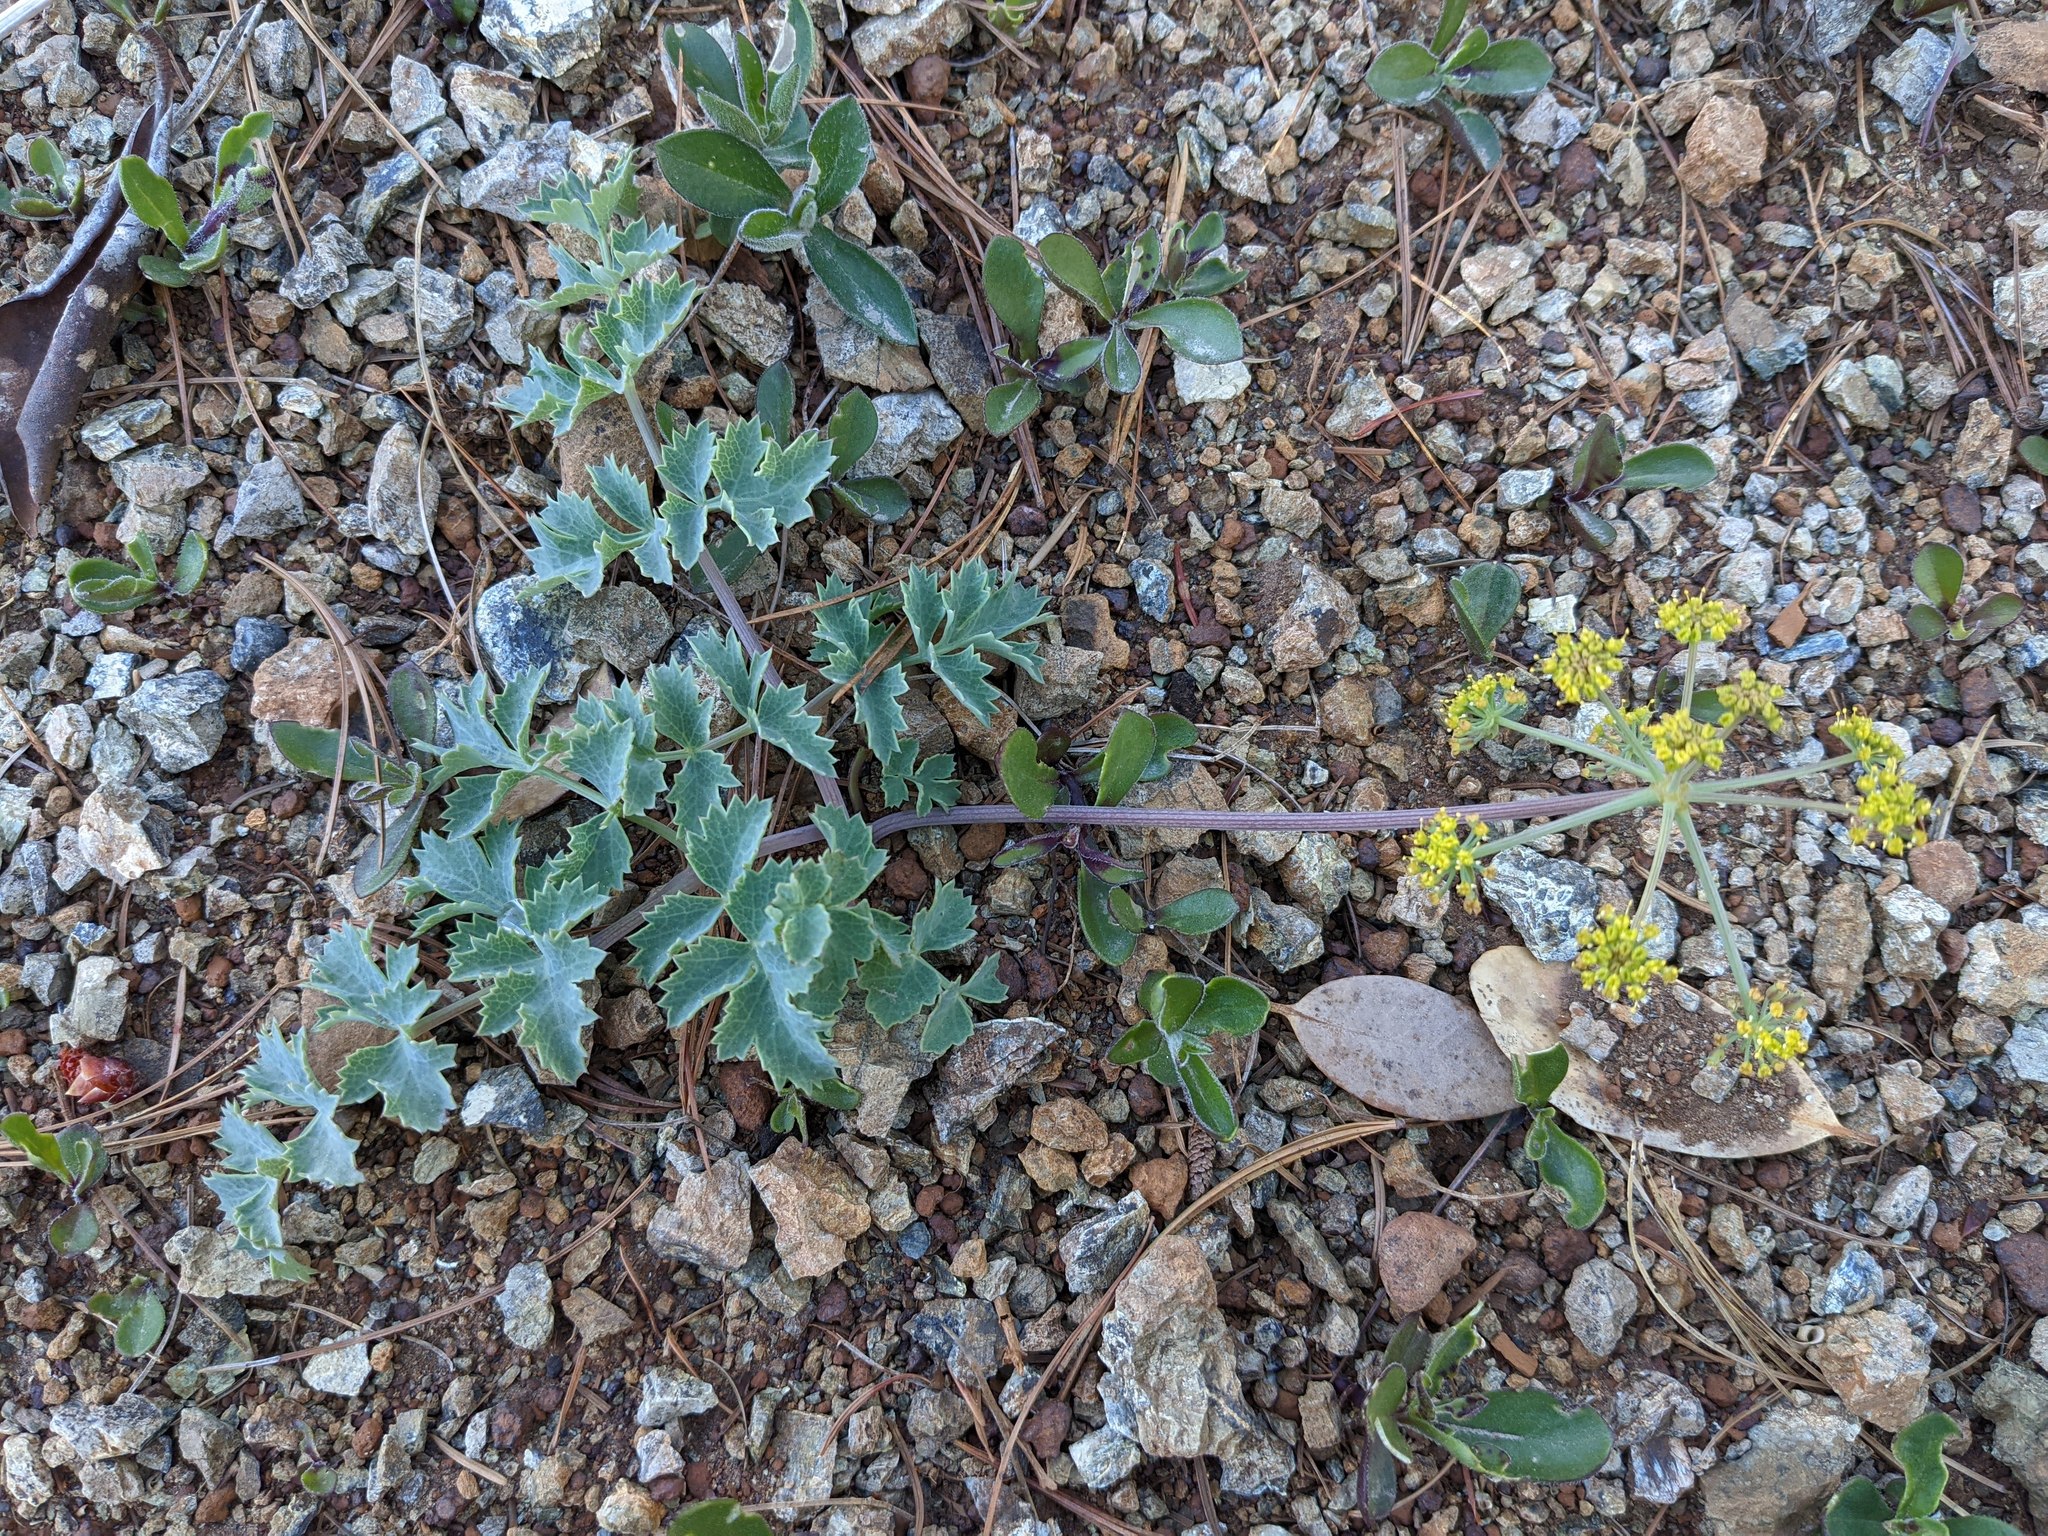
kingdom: Plantae
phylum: Tracheophyta
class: Magnoliopsida
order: Apiales
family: Apiaceae
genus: Lomatium
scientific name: Lomatium howellii
